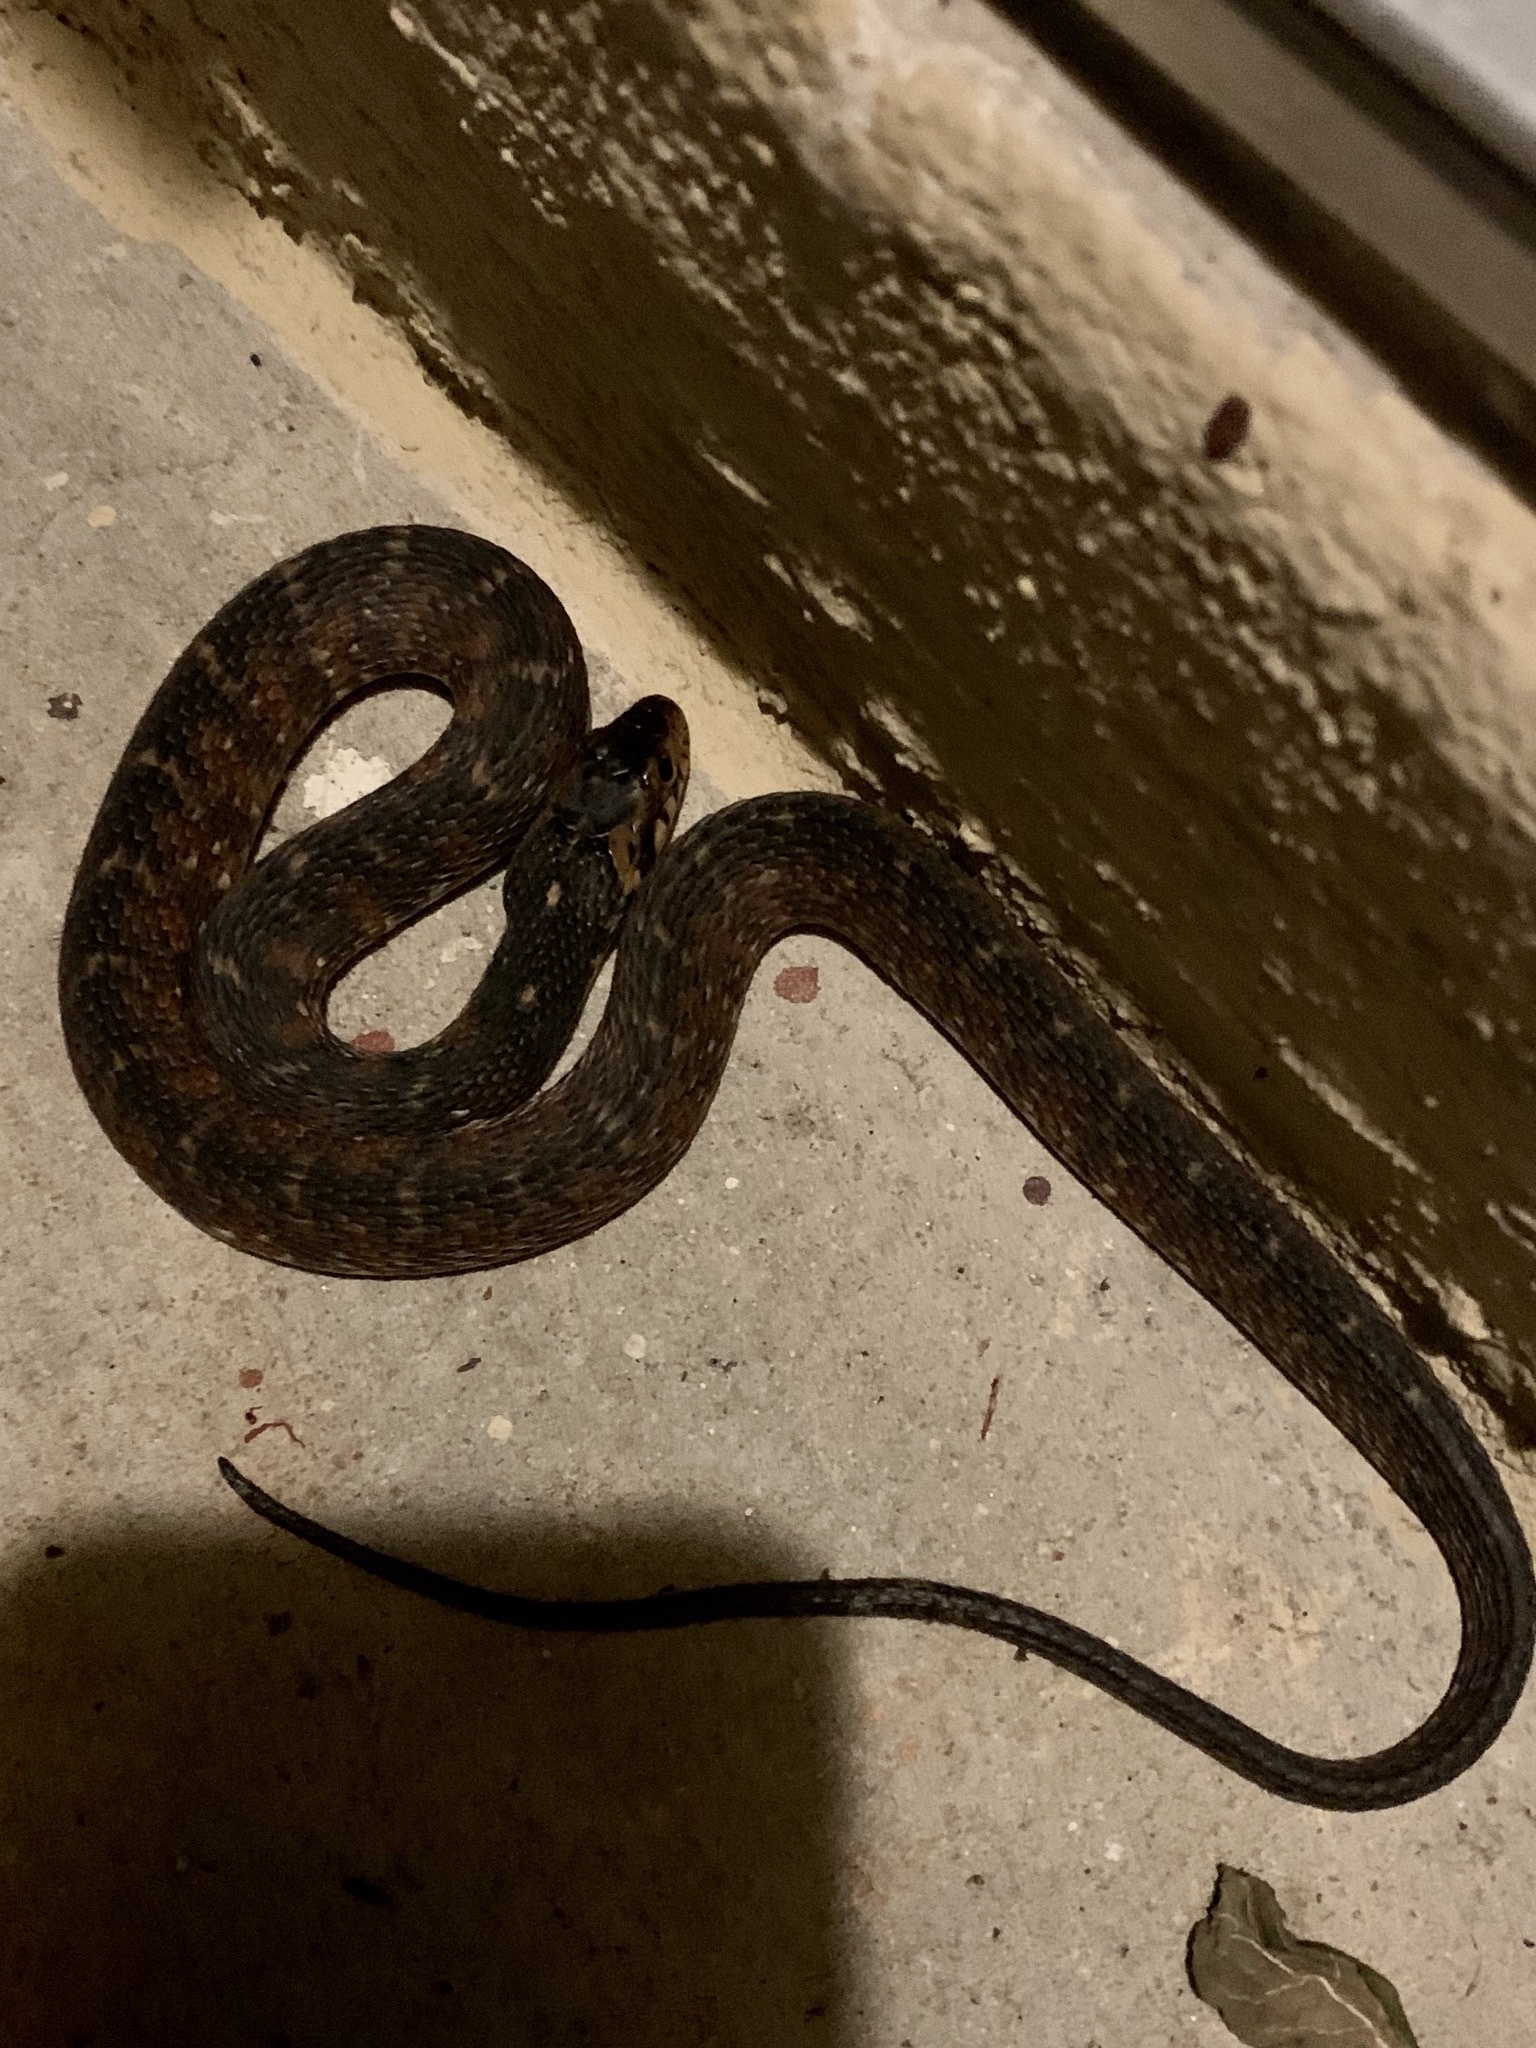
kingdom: Animalia
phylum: Chordata
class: Squamata
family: Colubridae
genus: Nerodia
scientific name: Nerodia fasciata
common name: Southern water snake
